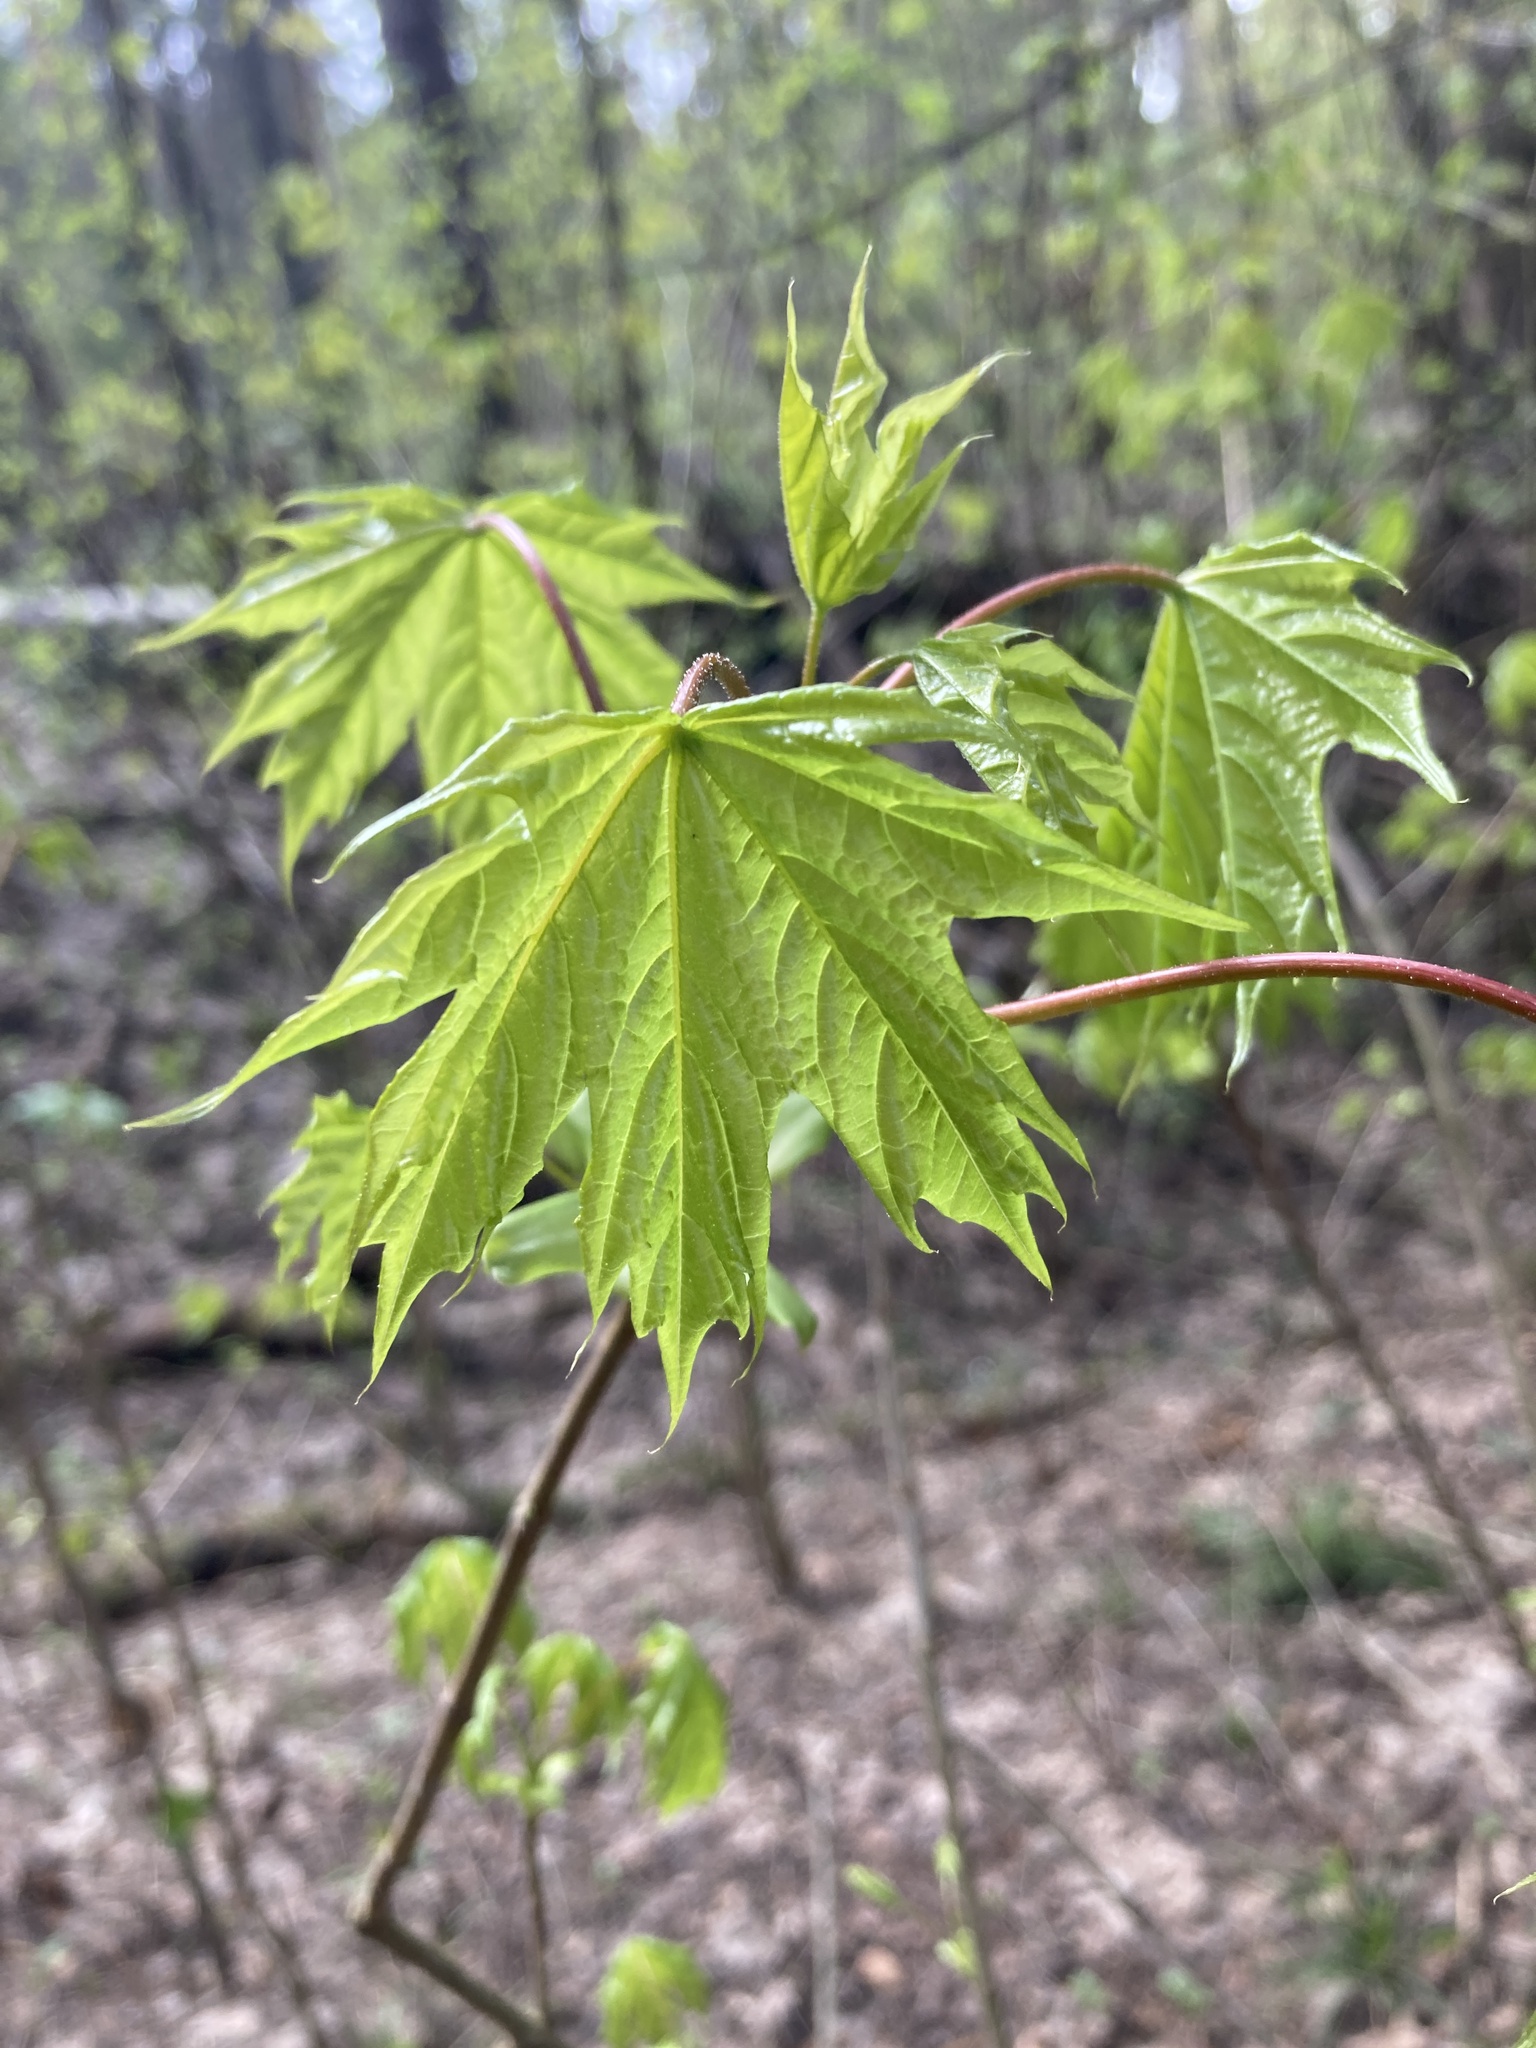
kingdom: Plantae
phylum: Tracheophyta
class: Magnoliopsida
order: Sapindales
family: Sapindaceae
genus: Acer
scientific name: Acer platanoides
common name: Norway maple
